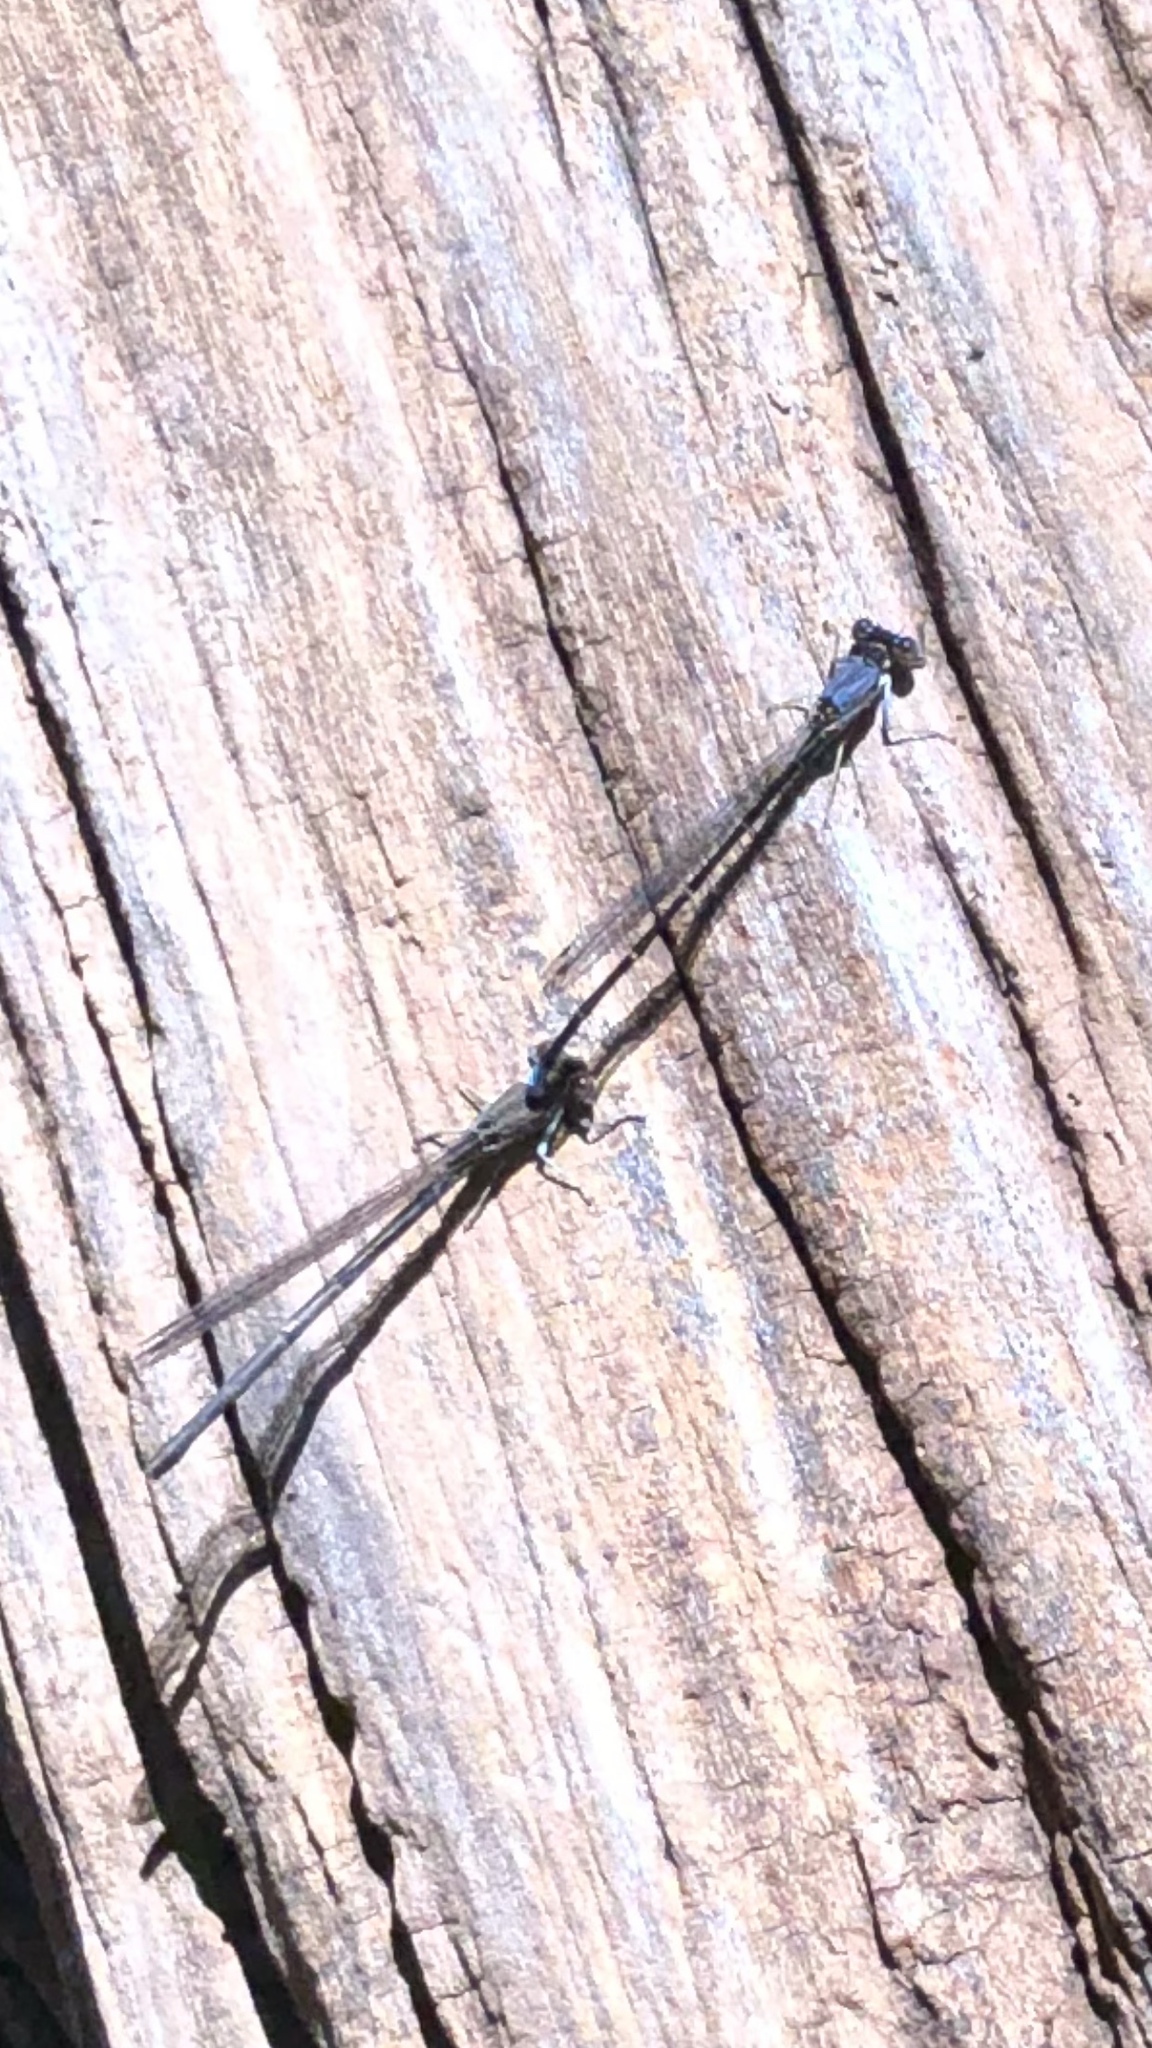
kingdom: Animalia
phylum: Arthropoda
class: Insecta
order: Odonata
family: Coenagrionidae
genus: Argia
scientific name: Argia apicalis
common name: Blue-fronted dancer
